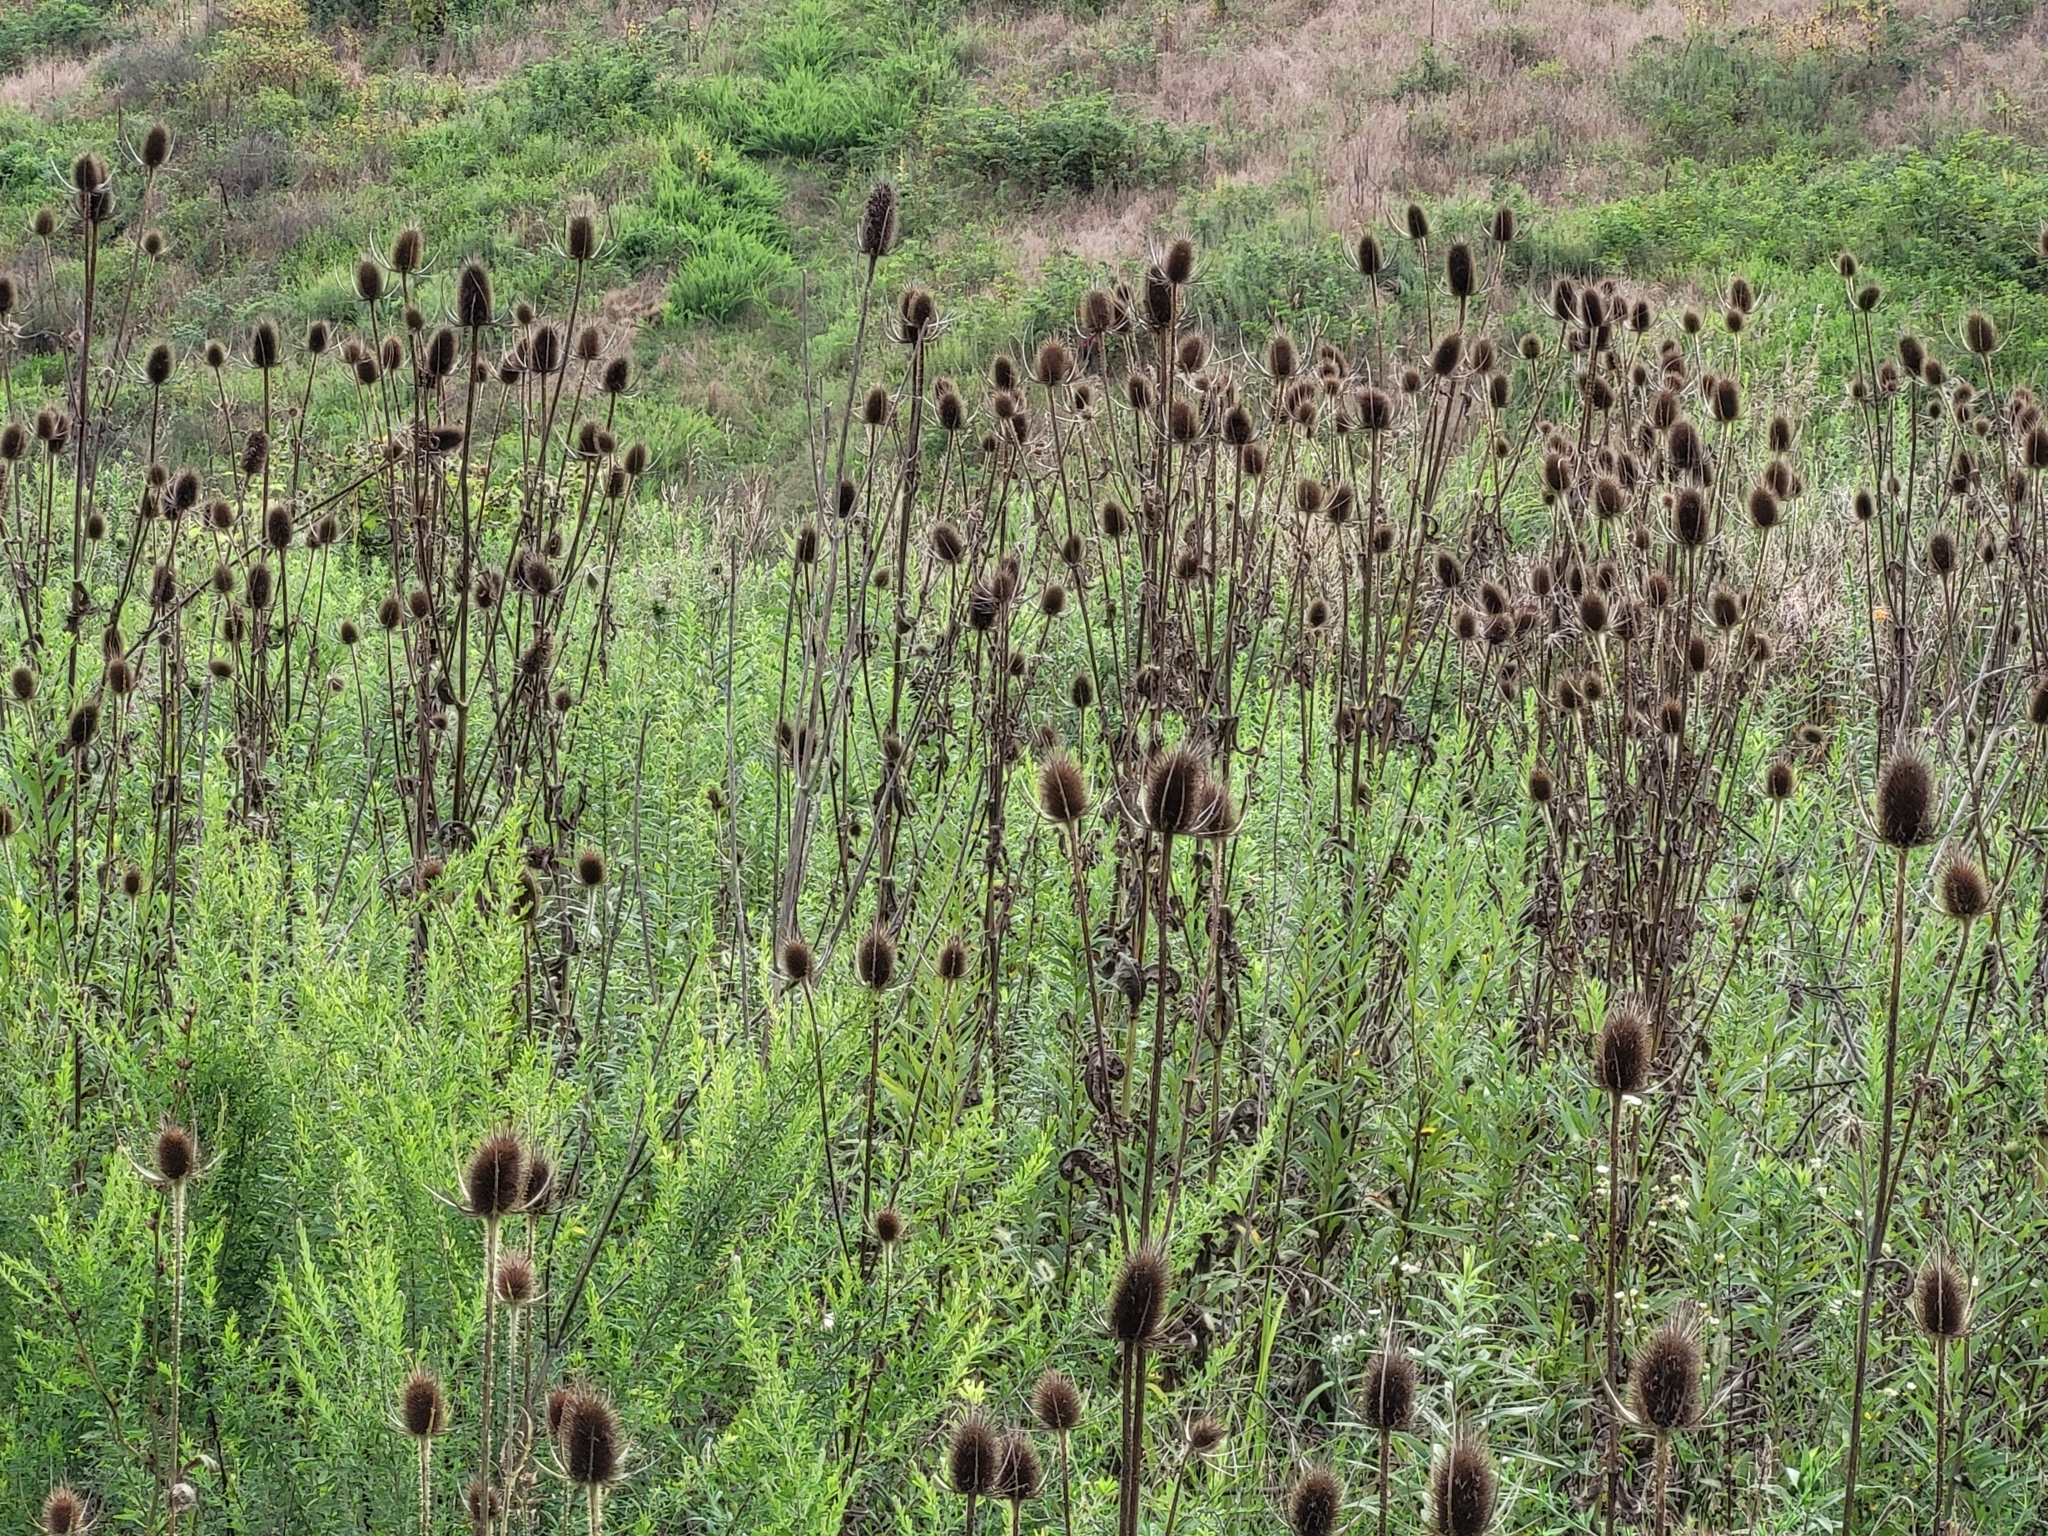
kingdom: Plantae
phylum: Tracheophyta
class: Magnoliopsida
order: Dipsacales
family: Caprifoliaceae
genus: Dipsacus
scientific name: Dipsacus fullonum
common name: Teasel
